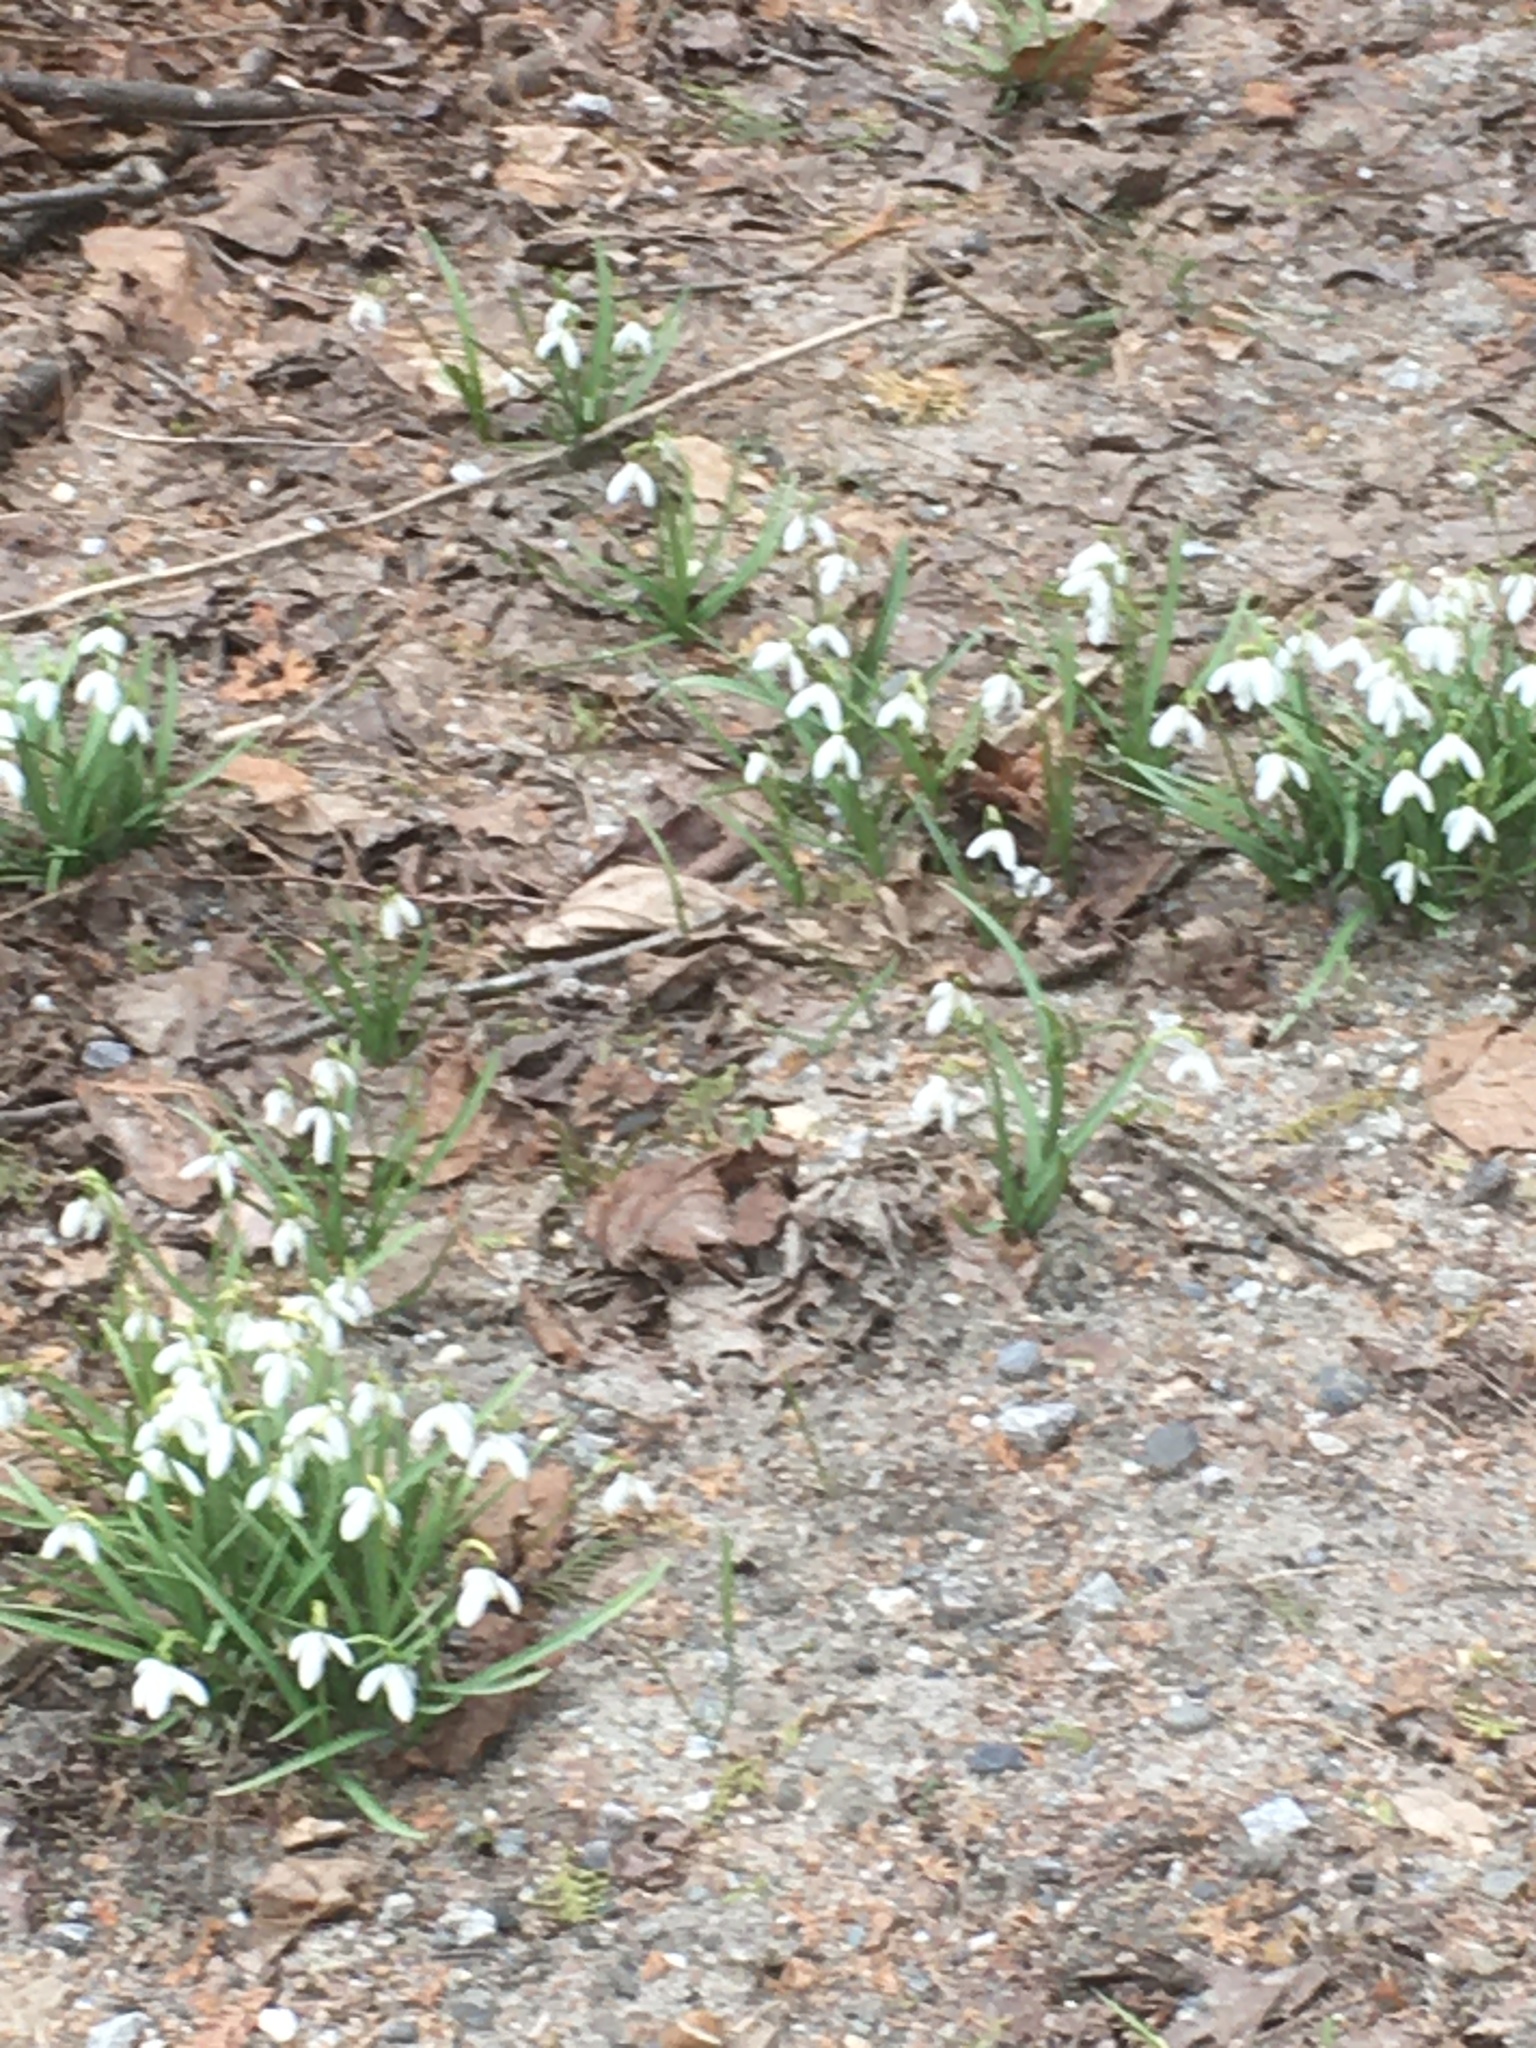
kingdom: Plantae
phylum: Tracheophyta
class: Liliopsida
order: Asparagales
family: Amaryllidaceae
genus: Galanthus
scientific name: Galanthus nivalis
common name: Snowdrop
